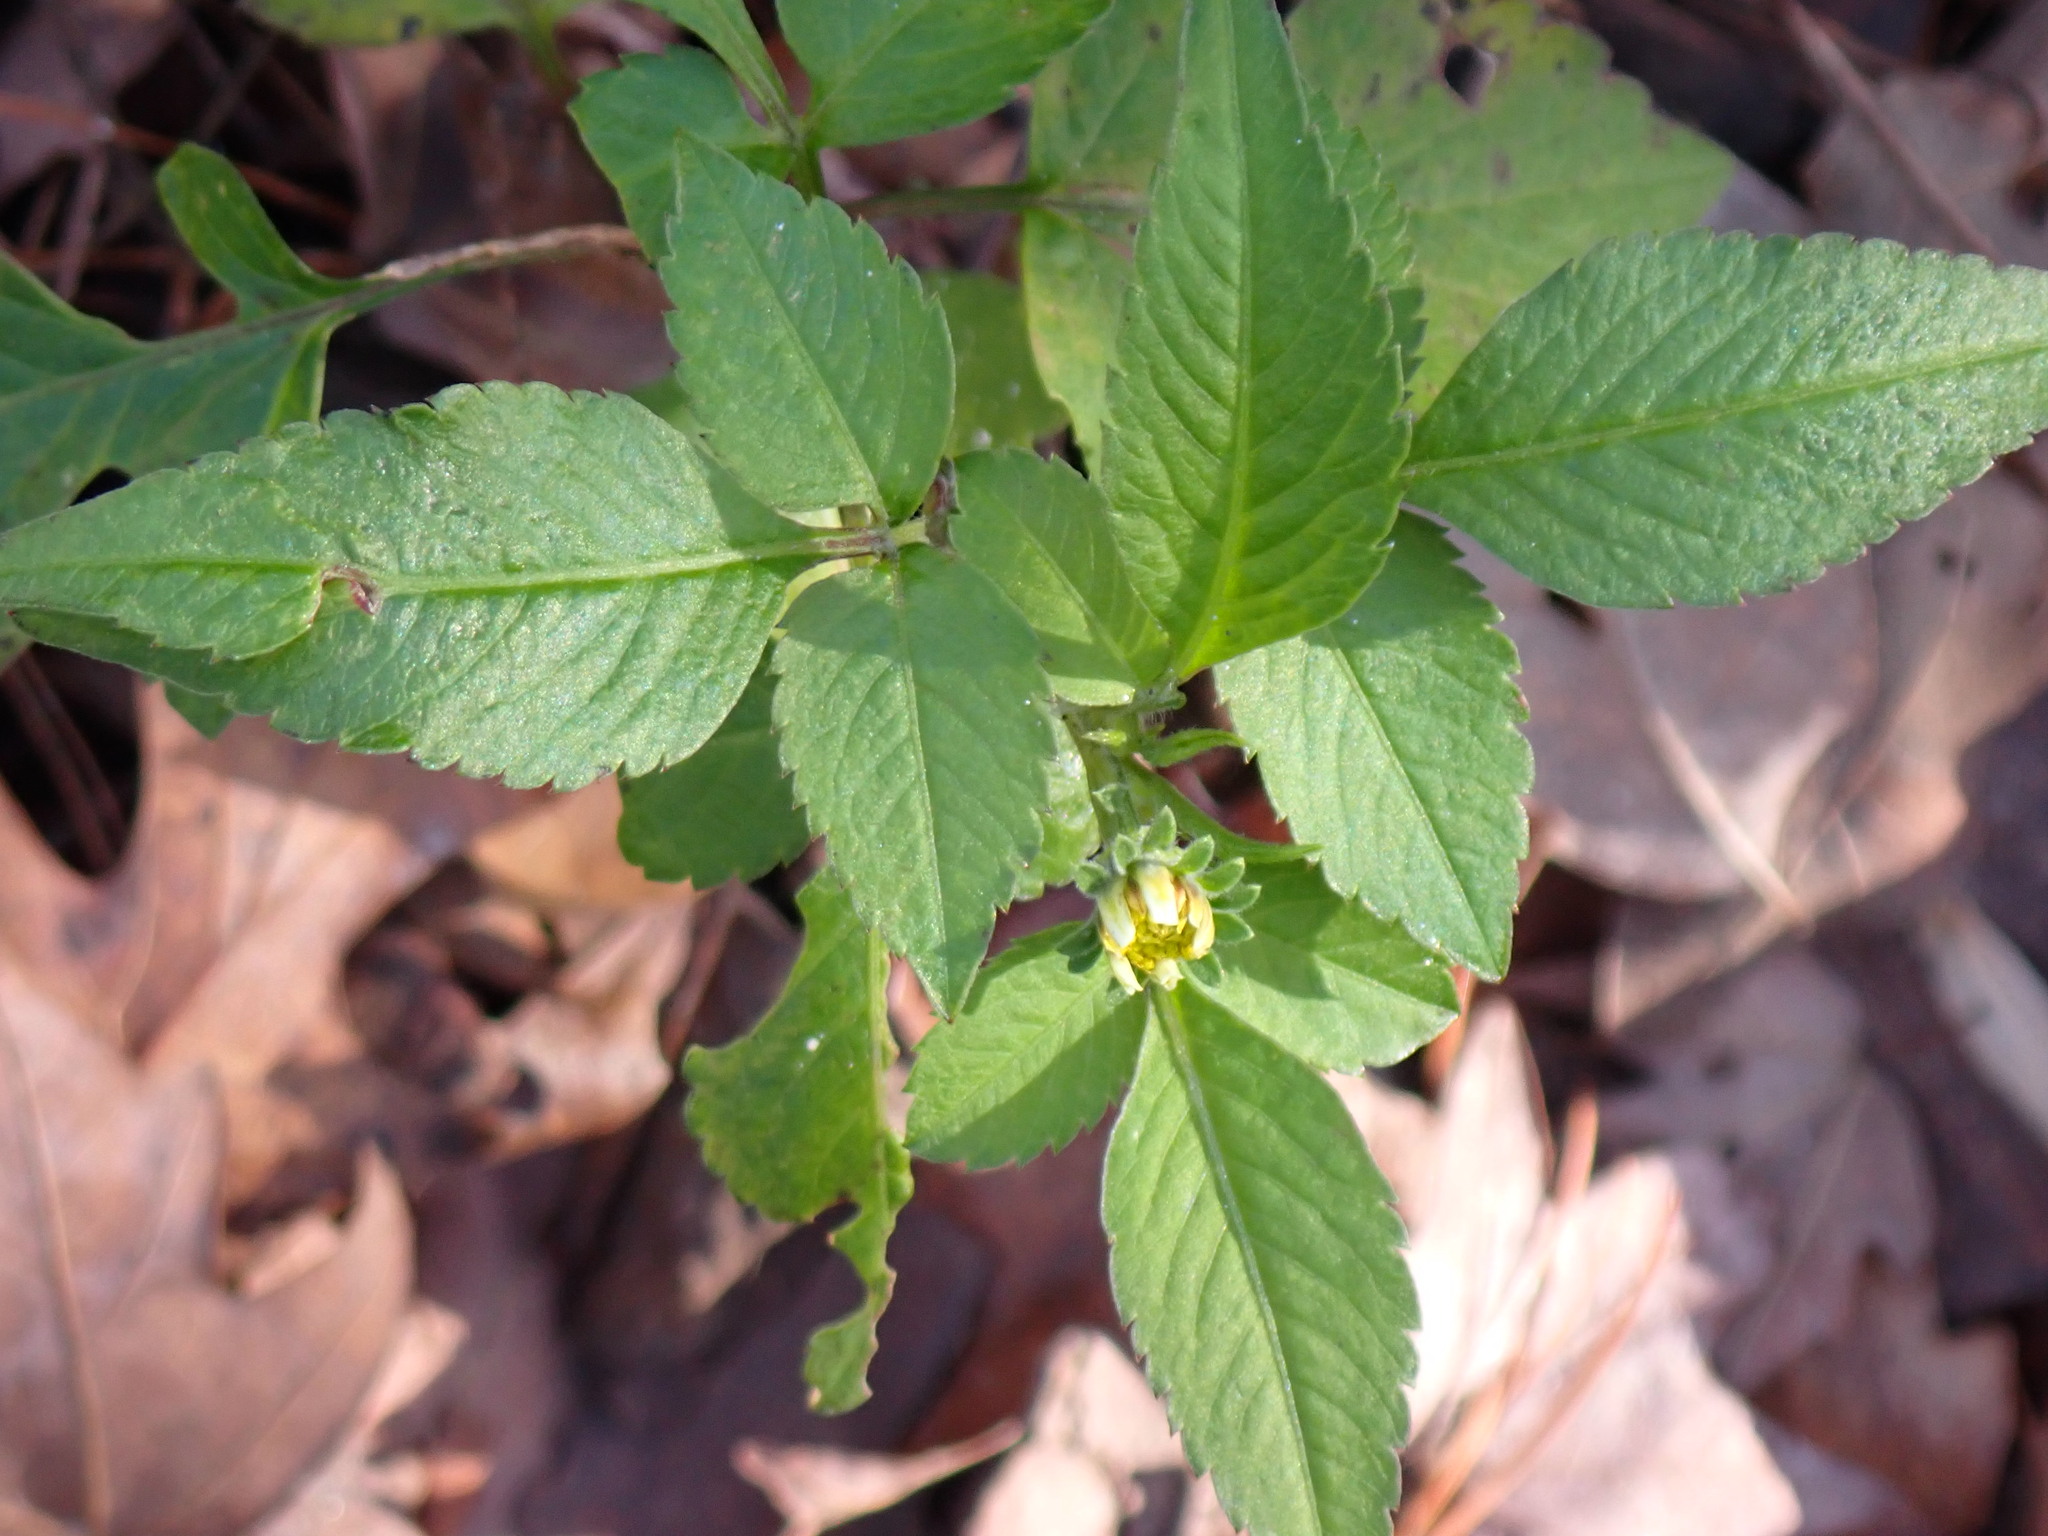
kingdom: Plantae
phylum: Tracheophyta
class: Magnoliopsida
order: Asterales
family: Asteraceae
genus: Bidens
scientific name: Bidens alba
